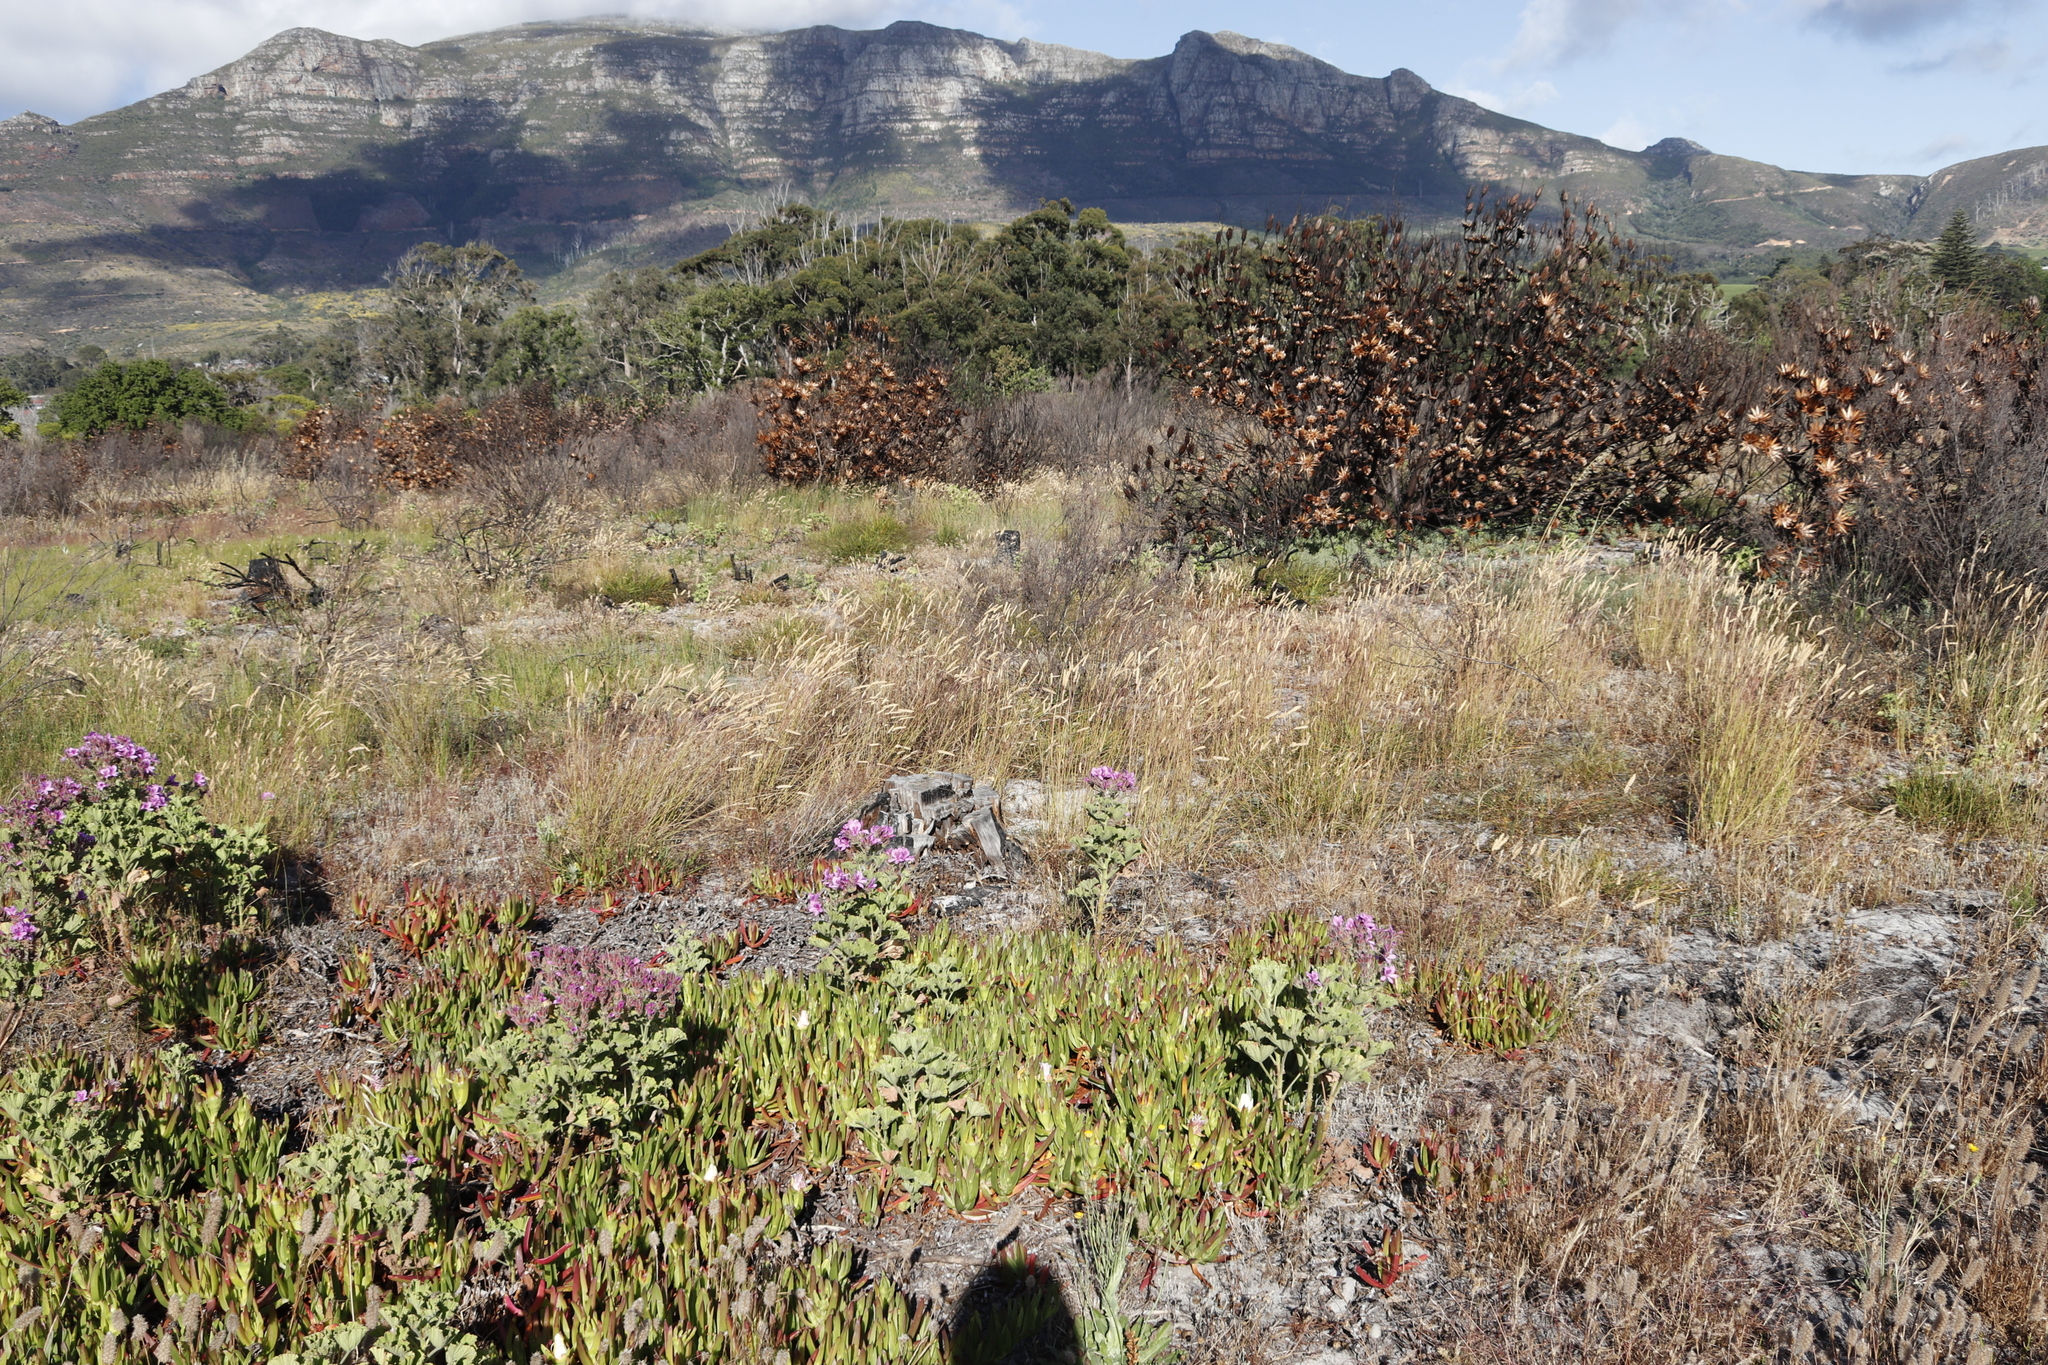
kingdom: Plantae
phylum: Tracheophyta
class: Magnoliopsida
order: Proteales
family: Proteaceae
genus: Protea
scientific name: Protea repens
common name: Sugarbush
